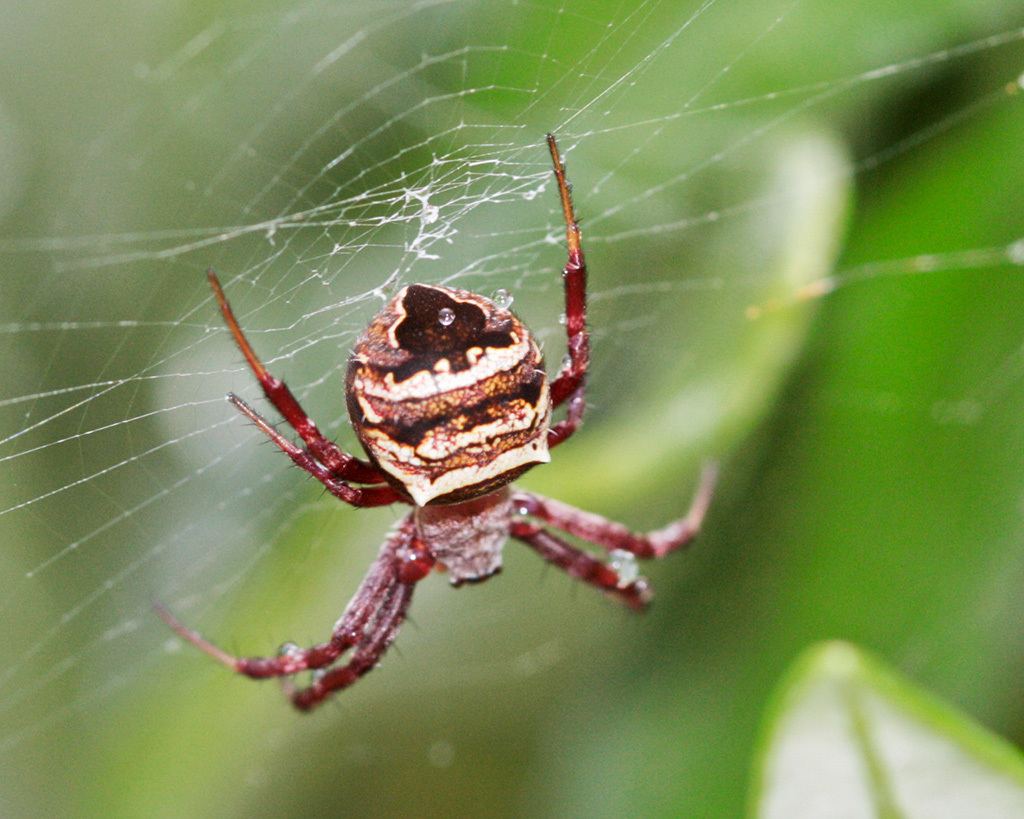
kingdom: Animalia
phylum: Arthropoda
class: Arachnida
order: Araneae
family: Araneidae
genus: Gea
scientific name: Gea infuscata
